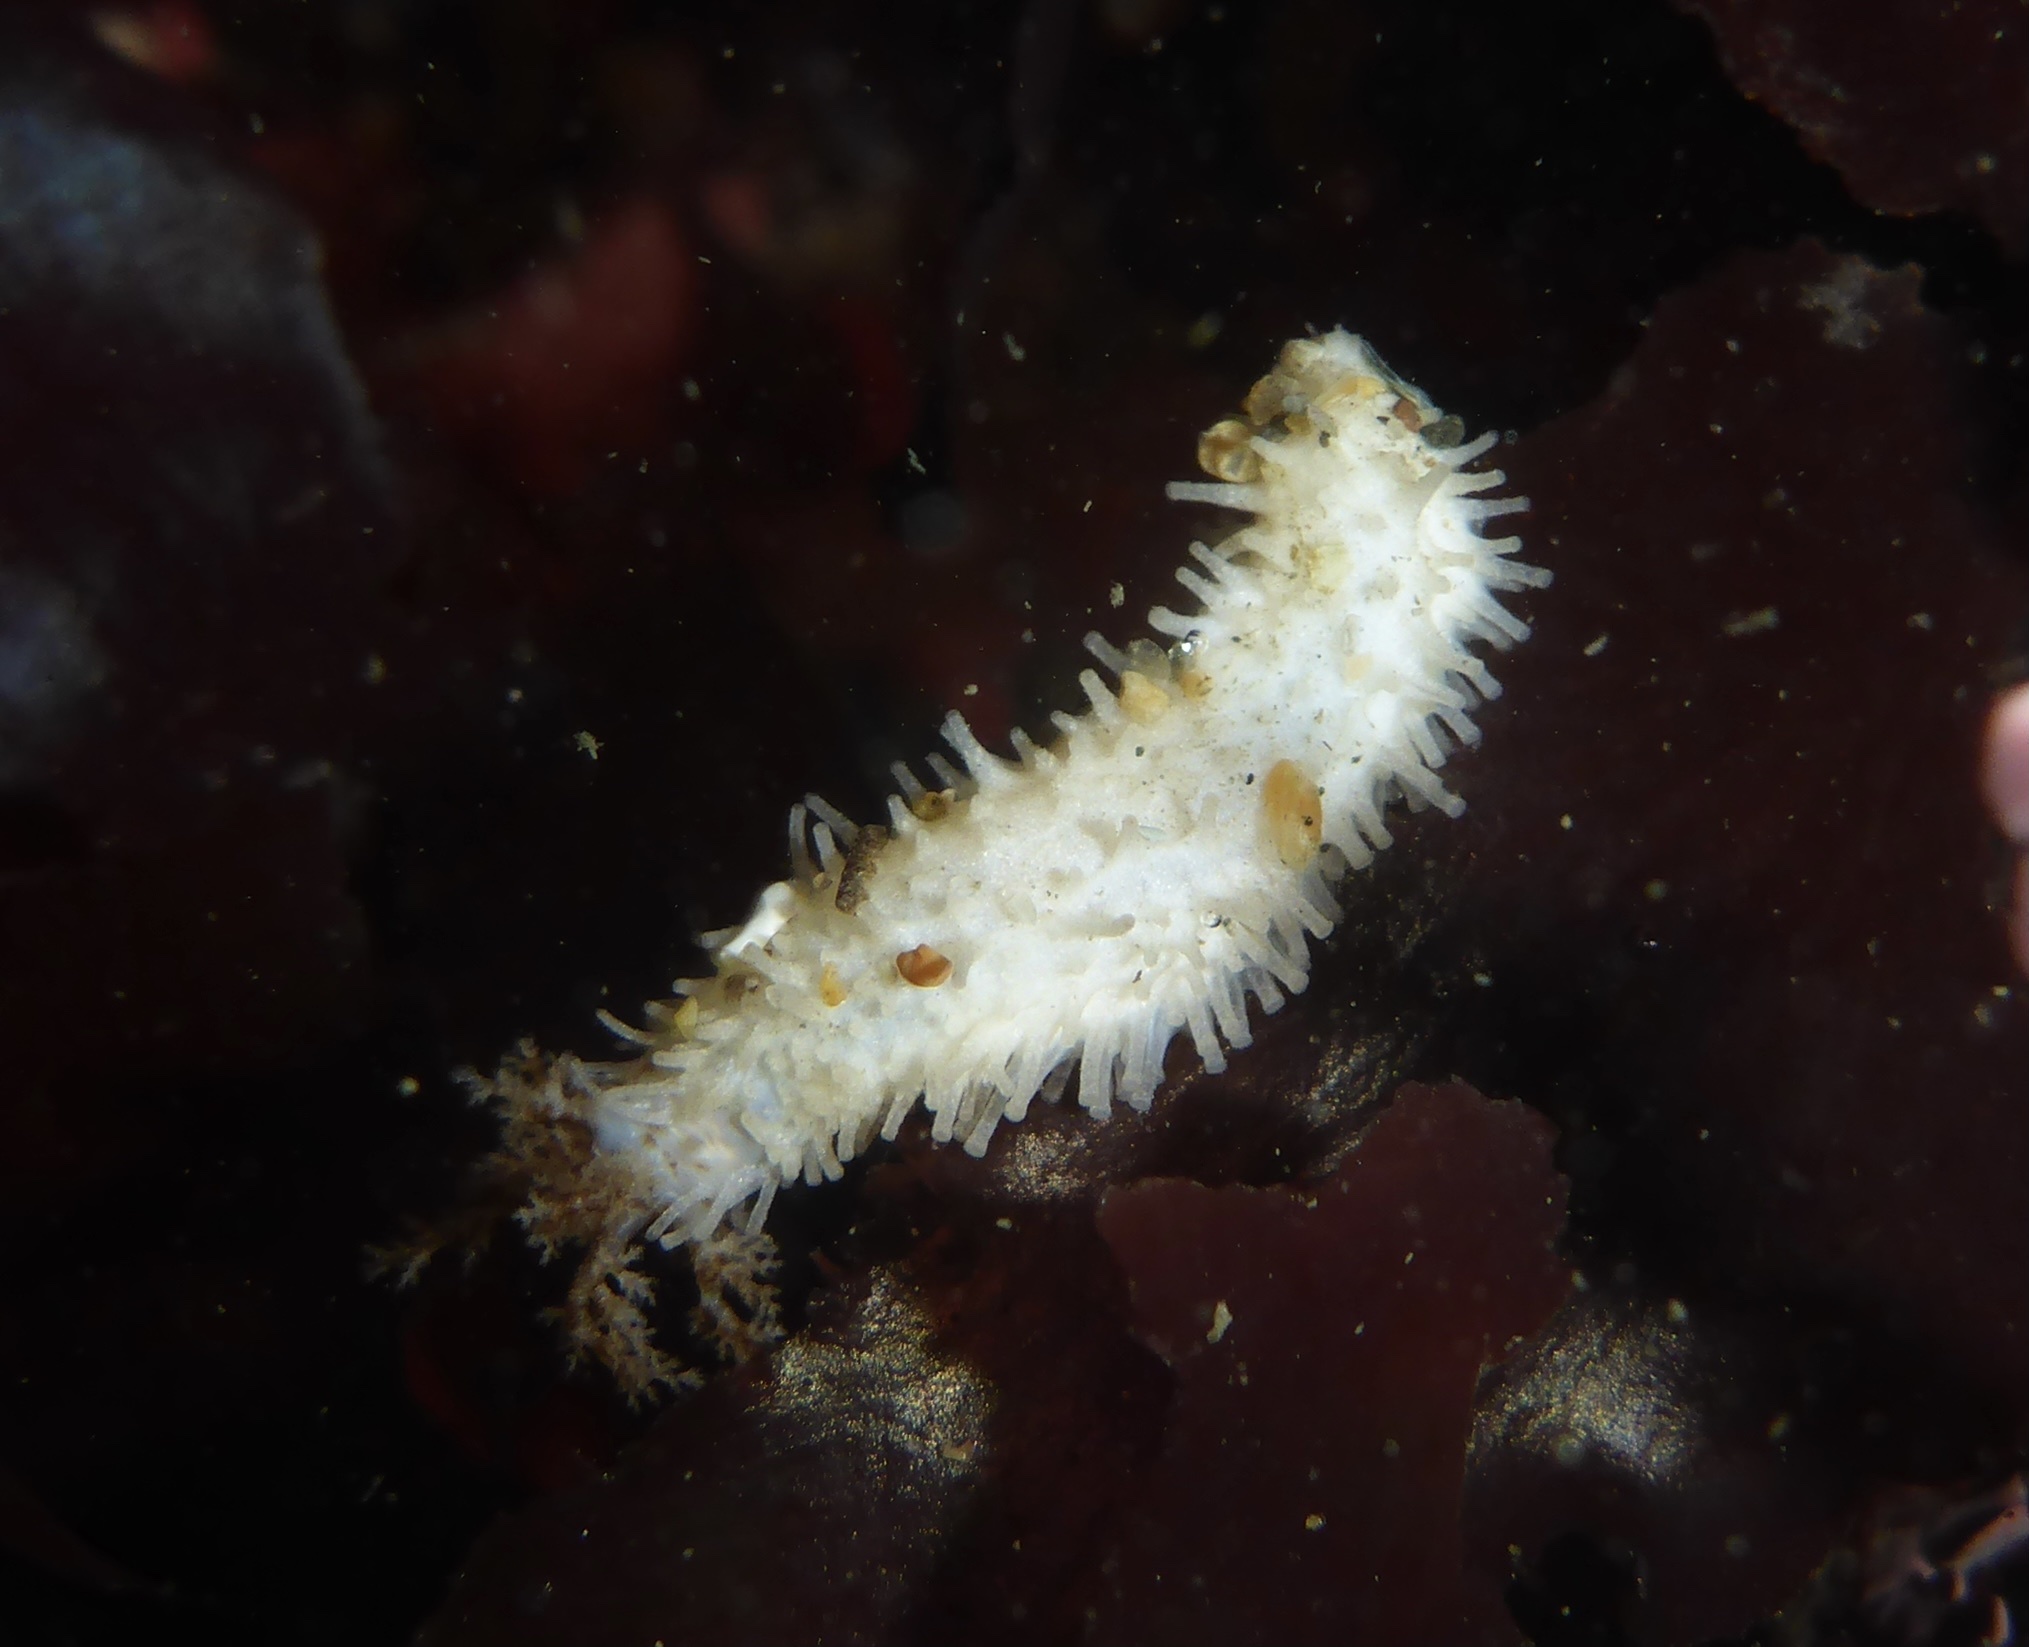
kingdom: Animalia
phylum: Echinodermata
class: Holothuroidea
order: Dendrochirotida
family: Sclerodactylidae
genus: Eupentacta
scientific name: Eupentacta quinquesemita
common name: Pentamerous sea cucumber
